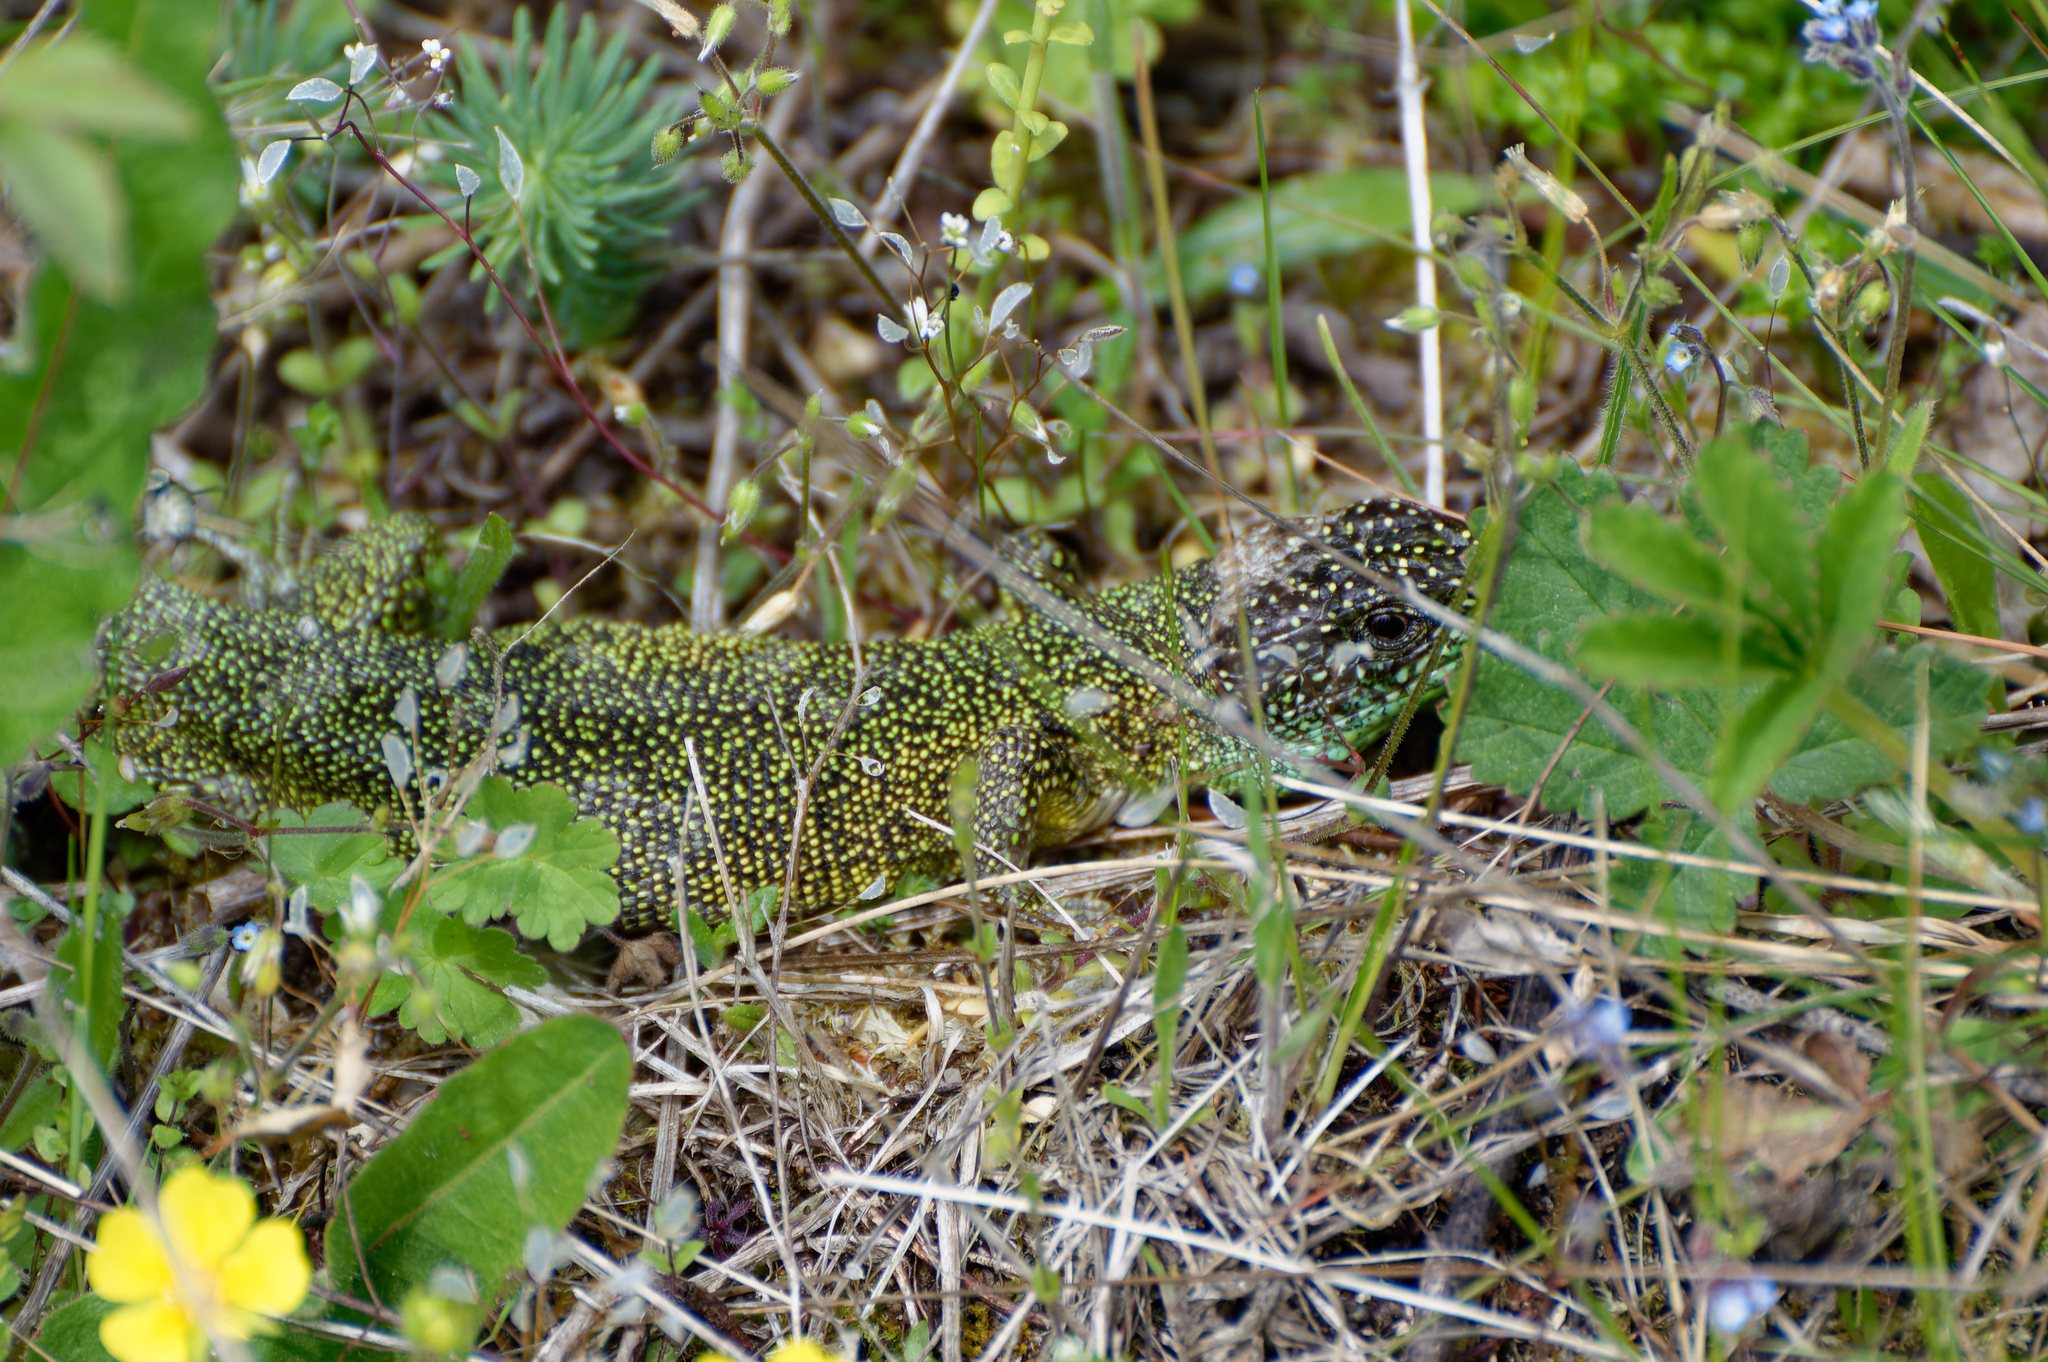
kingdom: Animalia
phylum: Chordata
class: Squamata
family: Lacertidae
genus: Lacerta
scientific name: Lacerta bilineata
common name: Western green lizard
